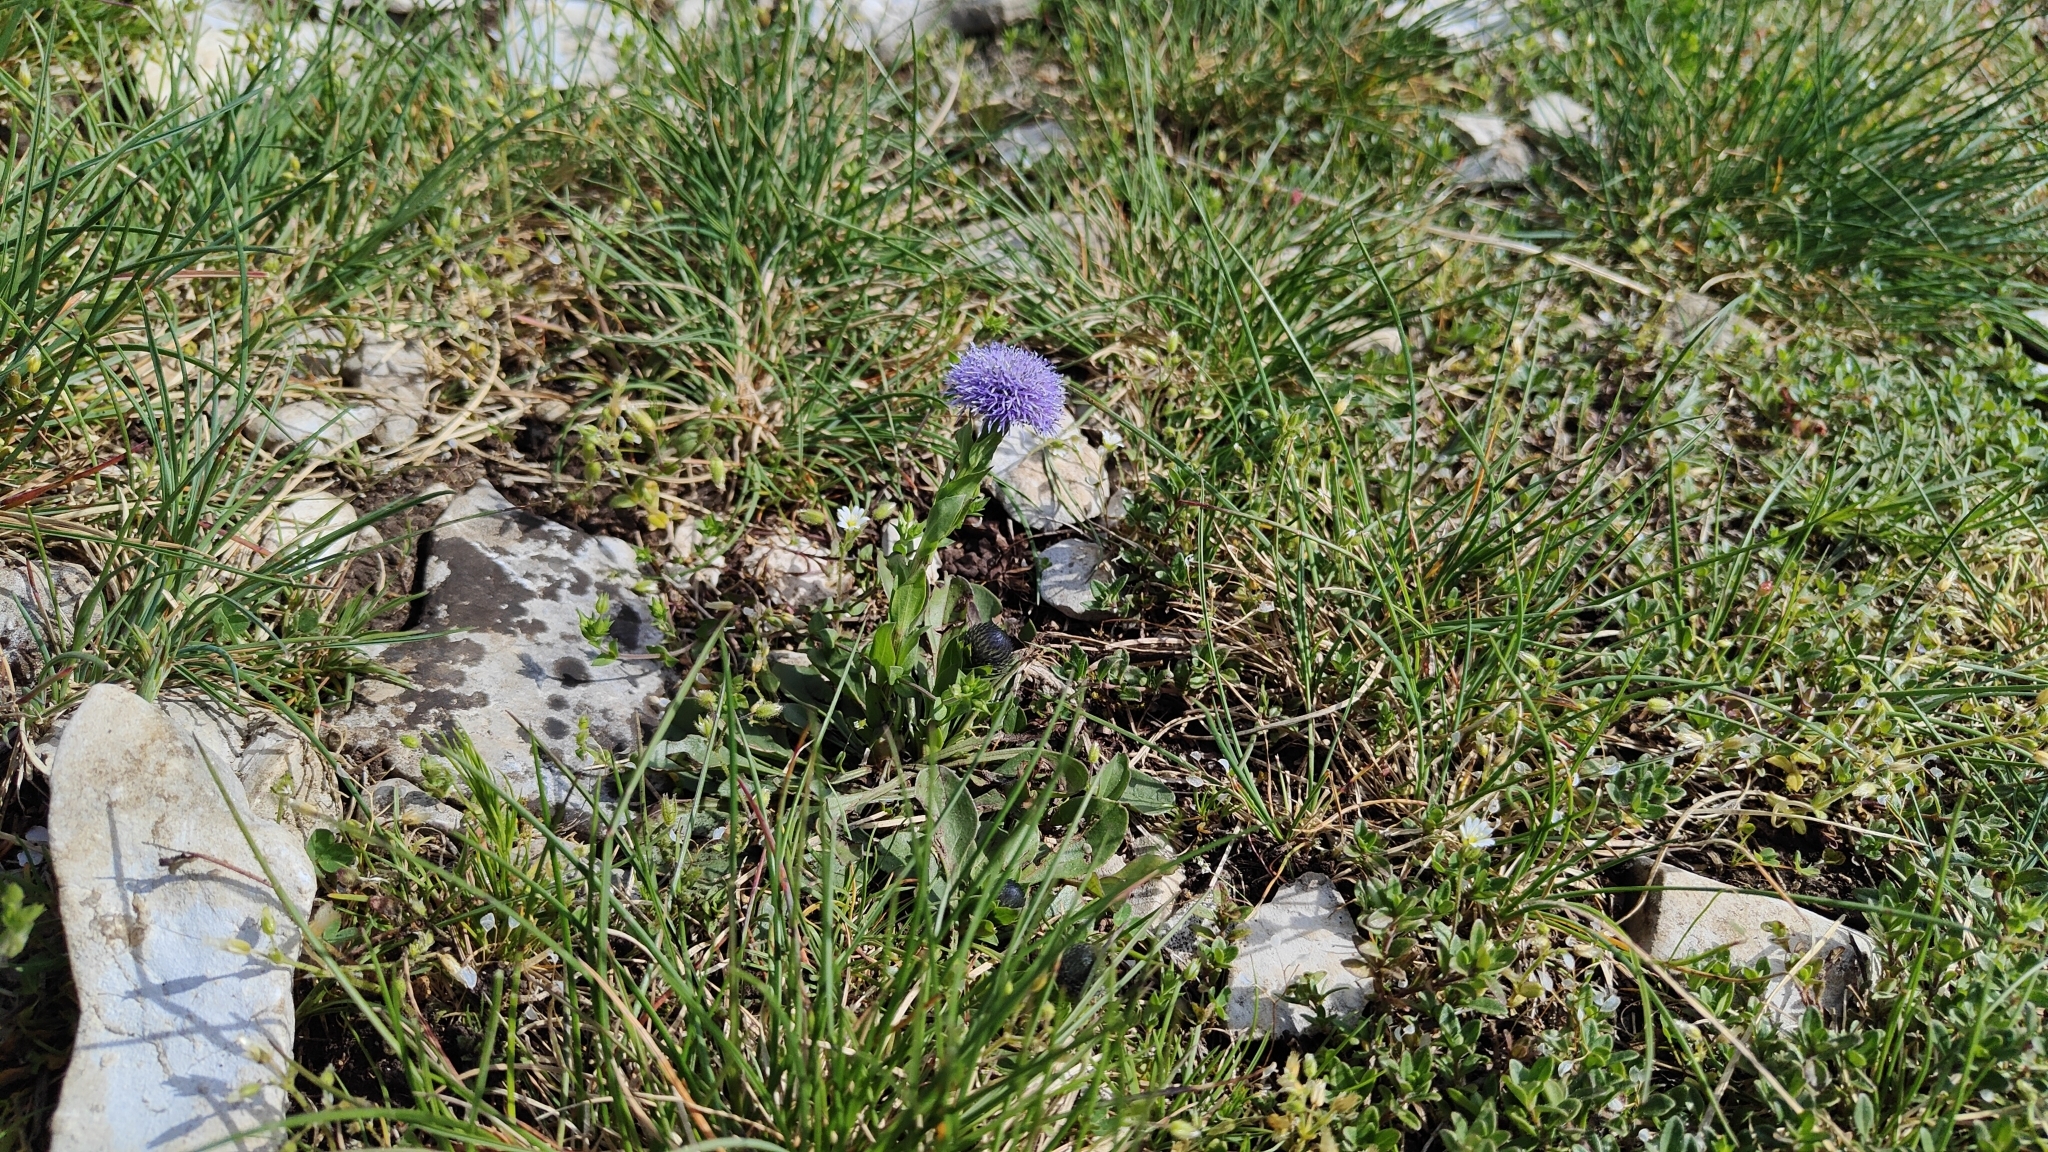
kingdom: Plantae
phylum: Tracheophyta
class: Magnoliopsida
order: Lamiales
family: Plantaginaceae
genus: Globularia
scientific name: Globularia bisnagarica
